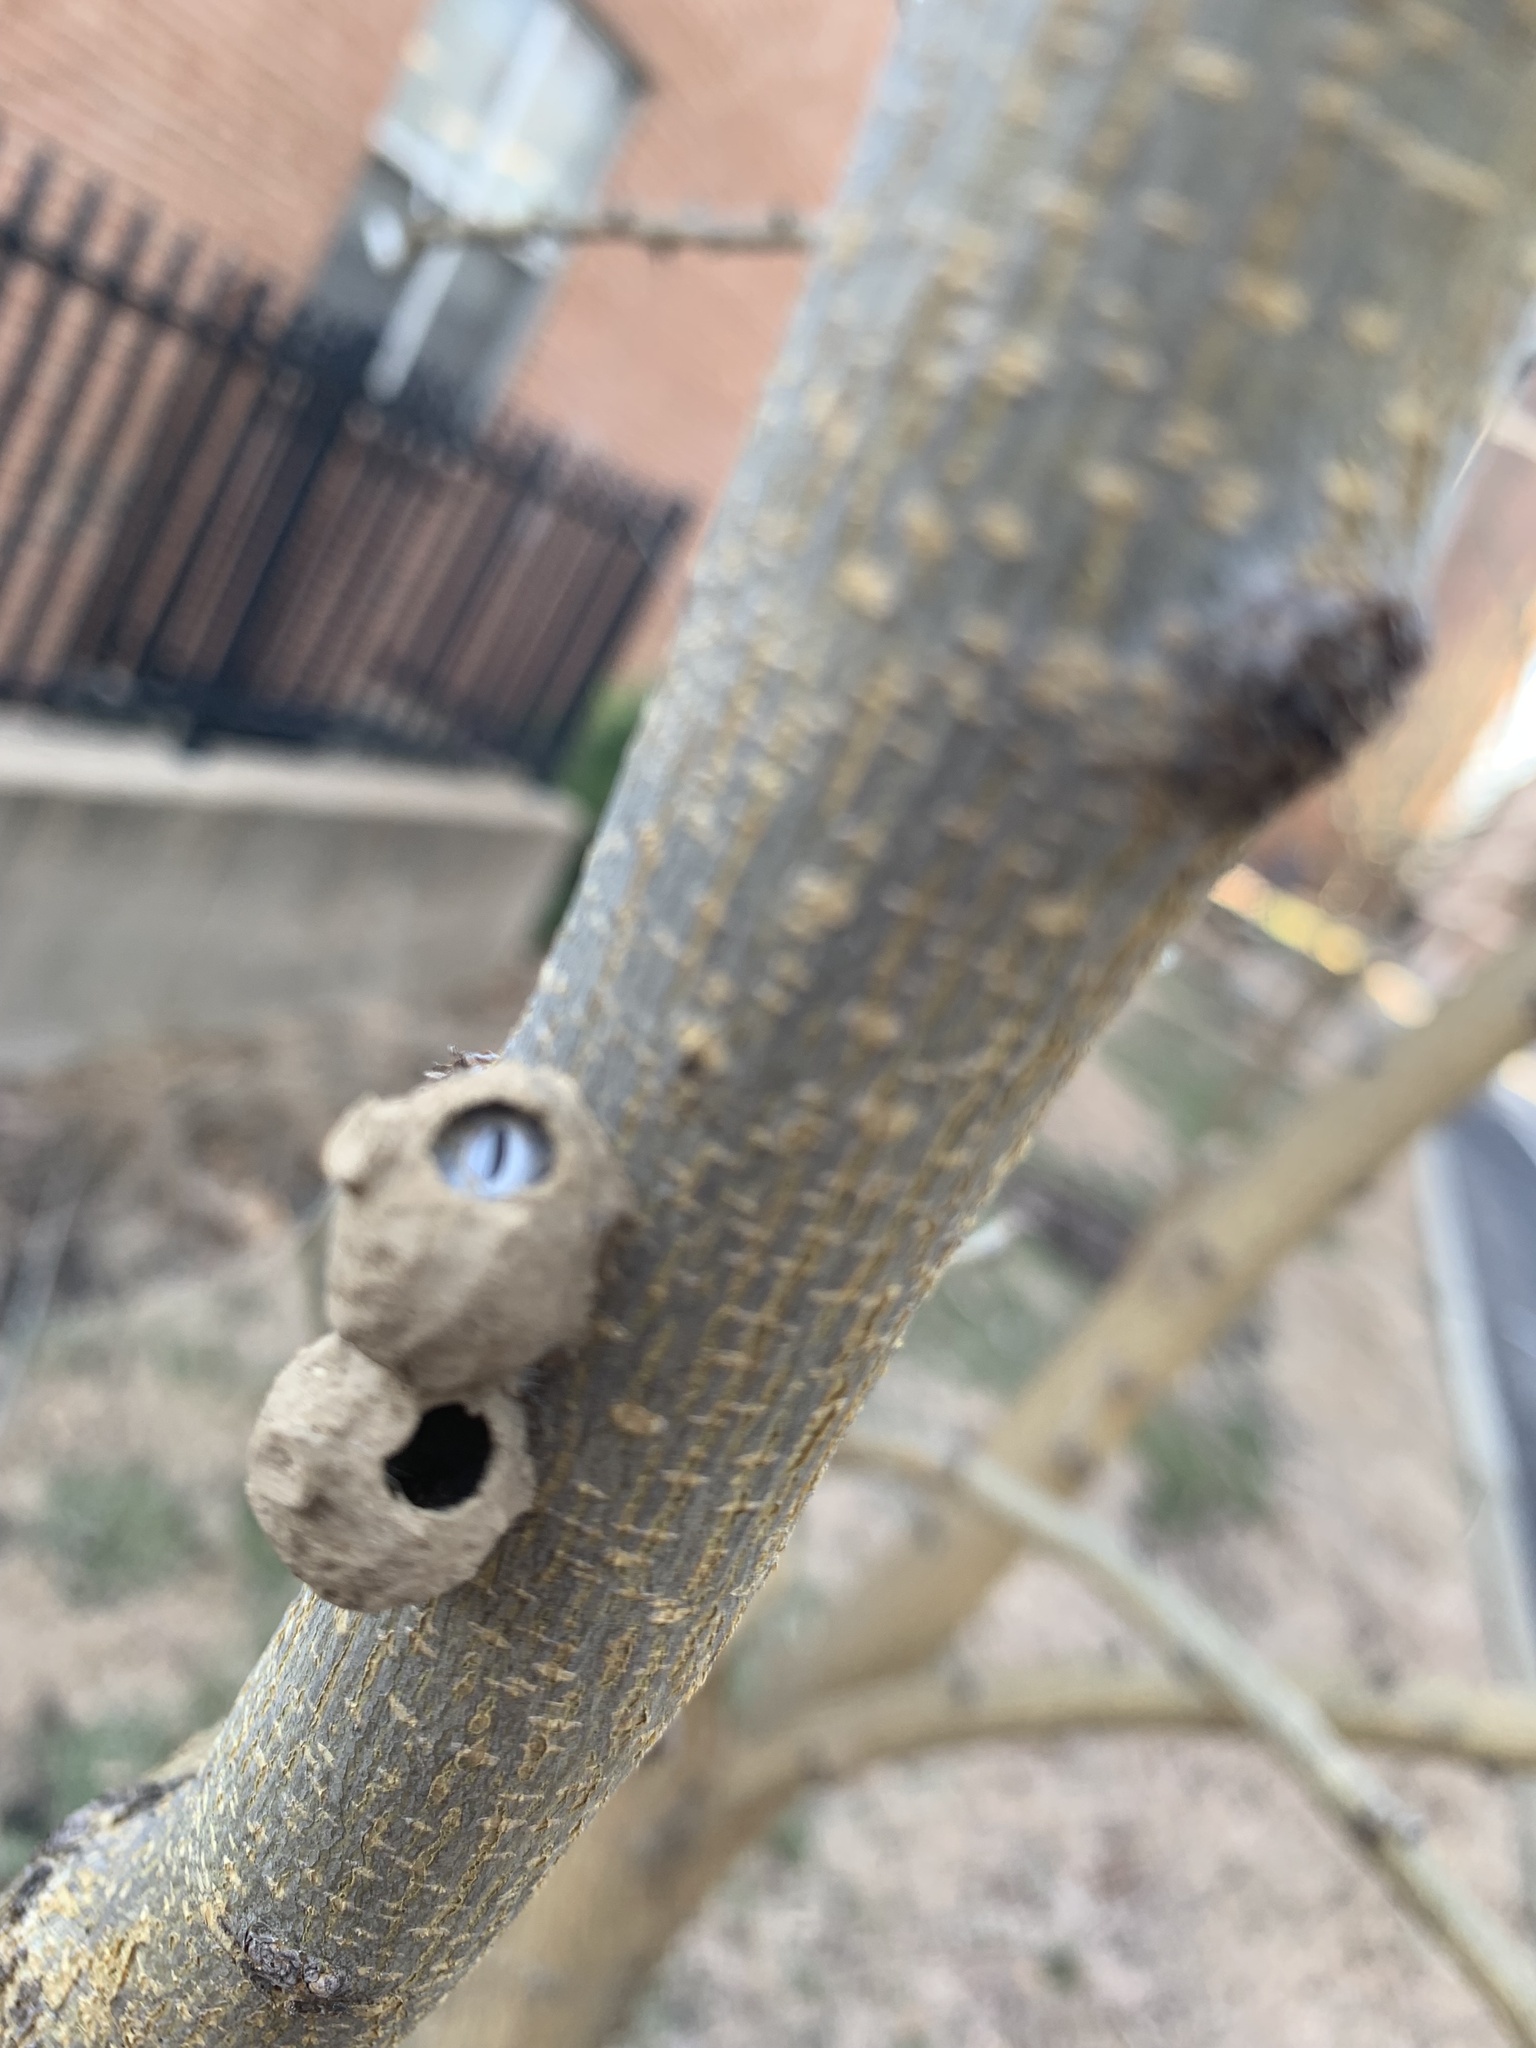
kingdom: Animalia
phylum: Arthropoda
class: Insecta
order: Hymenoptera
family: Vespidae
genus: Eumenes
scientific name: Eumenes
